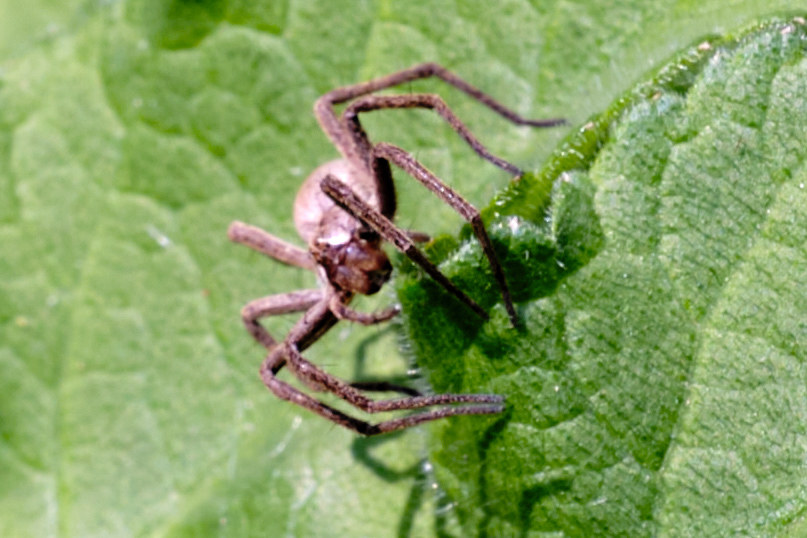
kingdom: Animalia
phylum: Arthropoda
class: Arachnida
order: Araneae
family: Pisauridae
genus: Pisaura
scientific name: Pisaura mirabilis
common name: Tent spider
